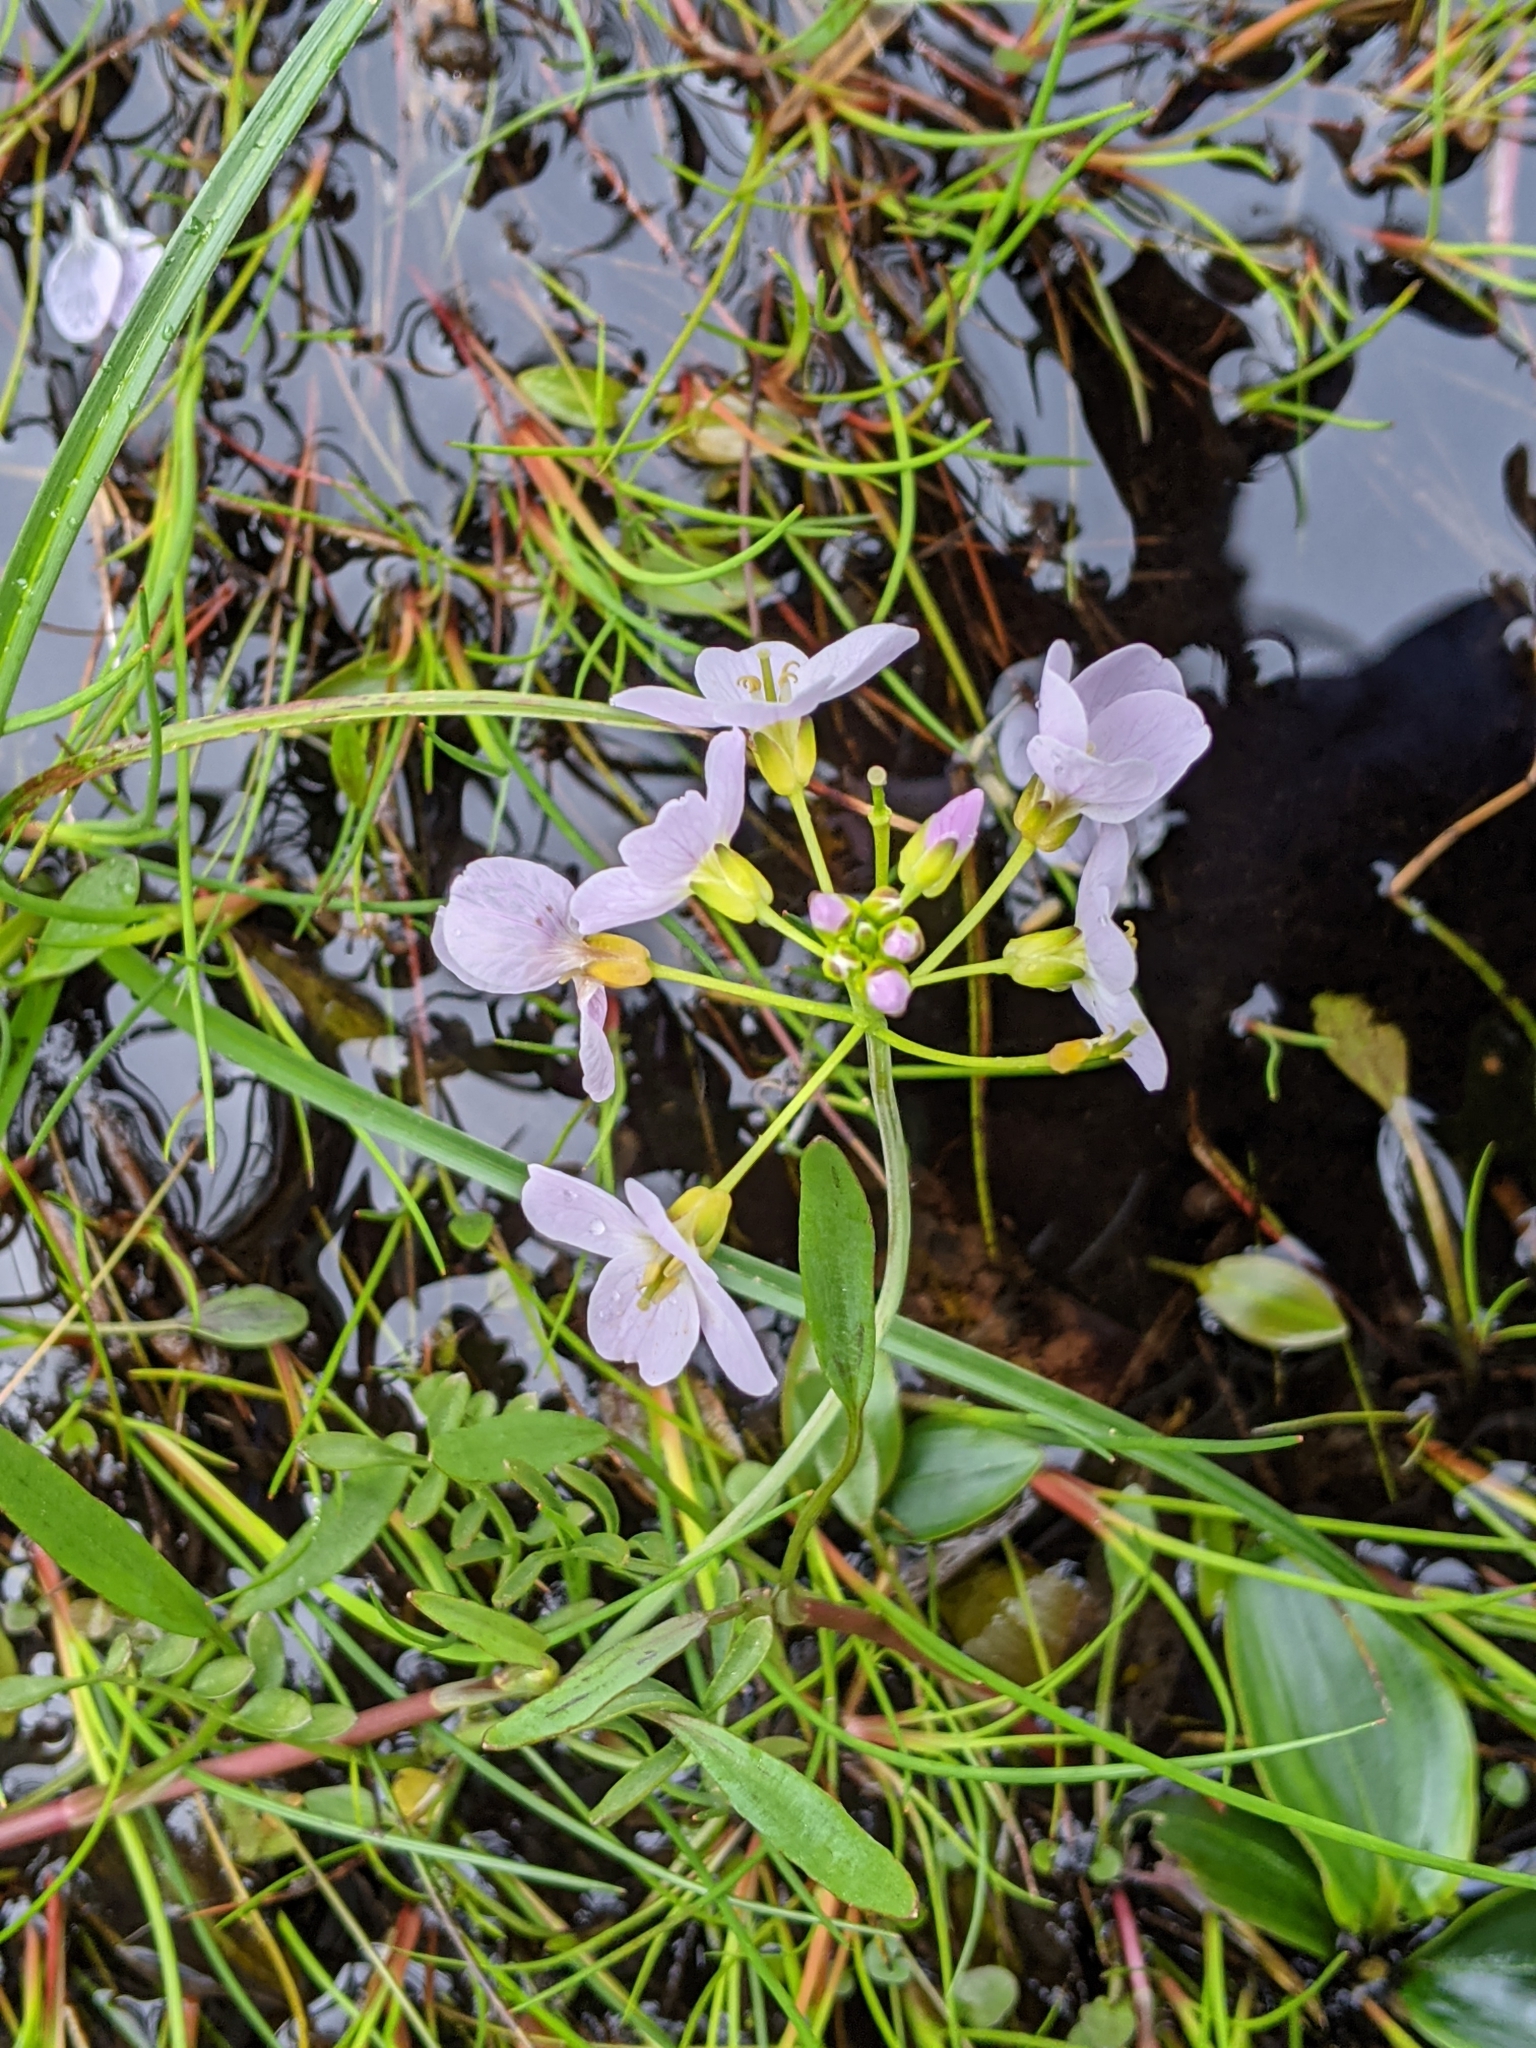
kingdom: Plantae
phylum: Tracheophyta
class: Magnoliopsida
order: Brassicales
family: Brassicaceae
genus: Cardamine
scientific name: Cardamine pratensis
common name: Cuckoo flower
